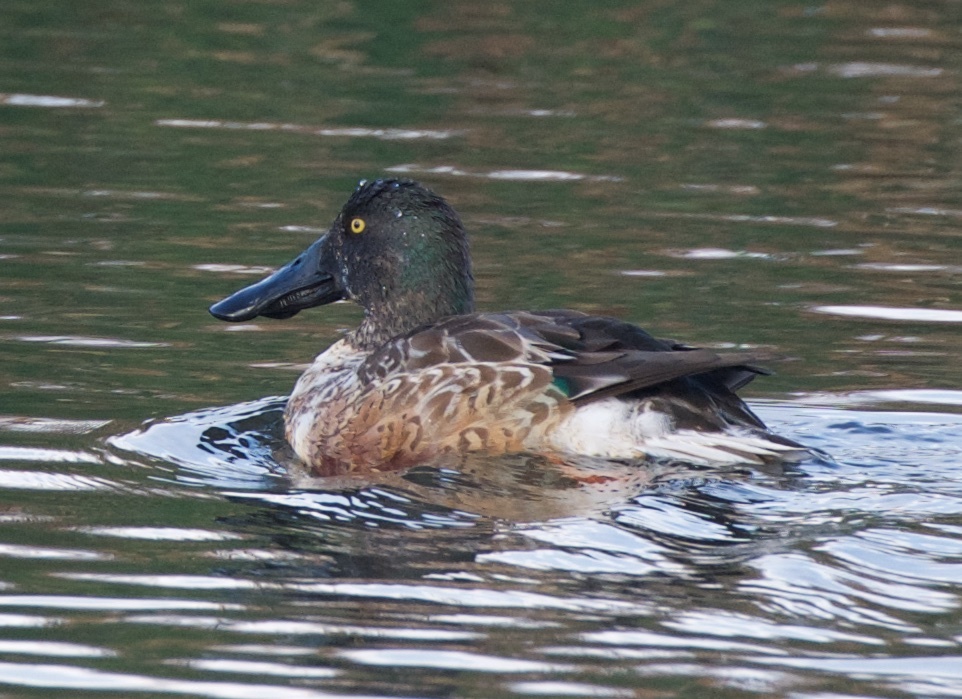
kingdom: Animalia
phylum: Chordata
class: Aves
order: Anseriformes
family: Anatidae
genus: Spatula
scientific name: Spatula clypeata
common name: Northern shoveler
